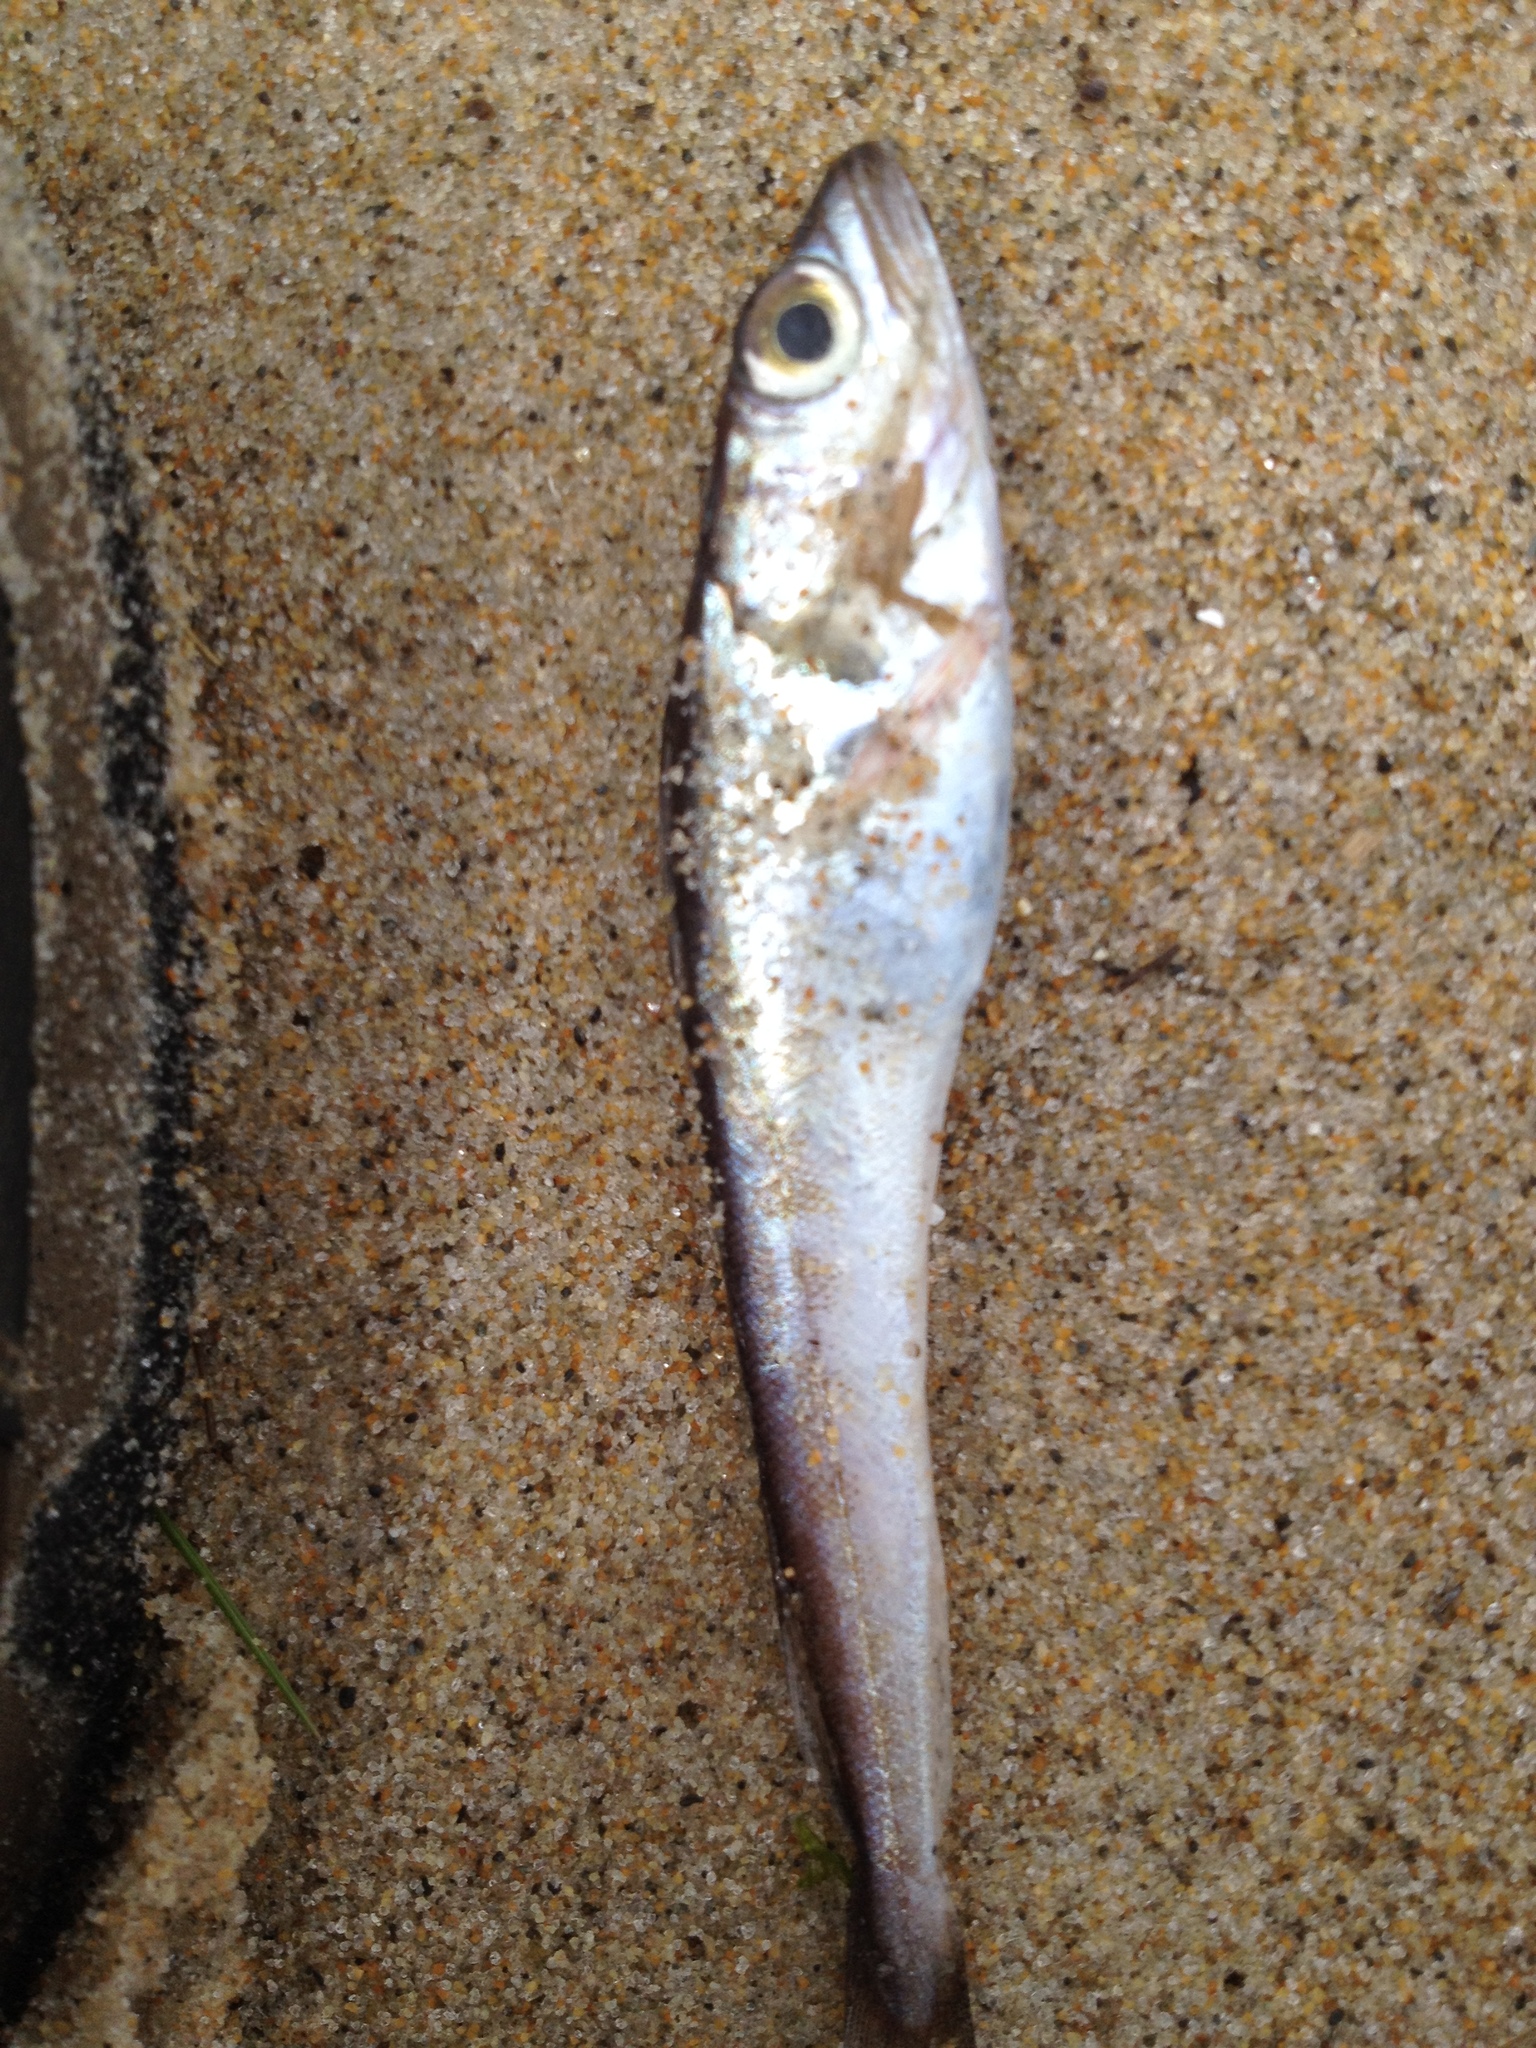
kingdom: Animalia
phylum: Chordata
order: Gadiformes
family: Merlucciidae
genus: Merluccius
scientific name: Merluccius bilinearis
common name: Silver hake
